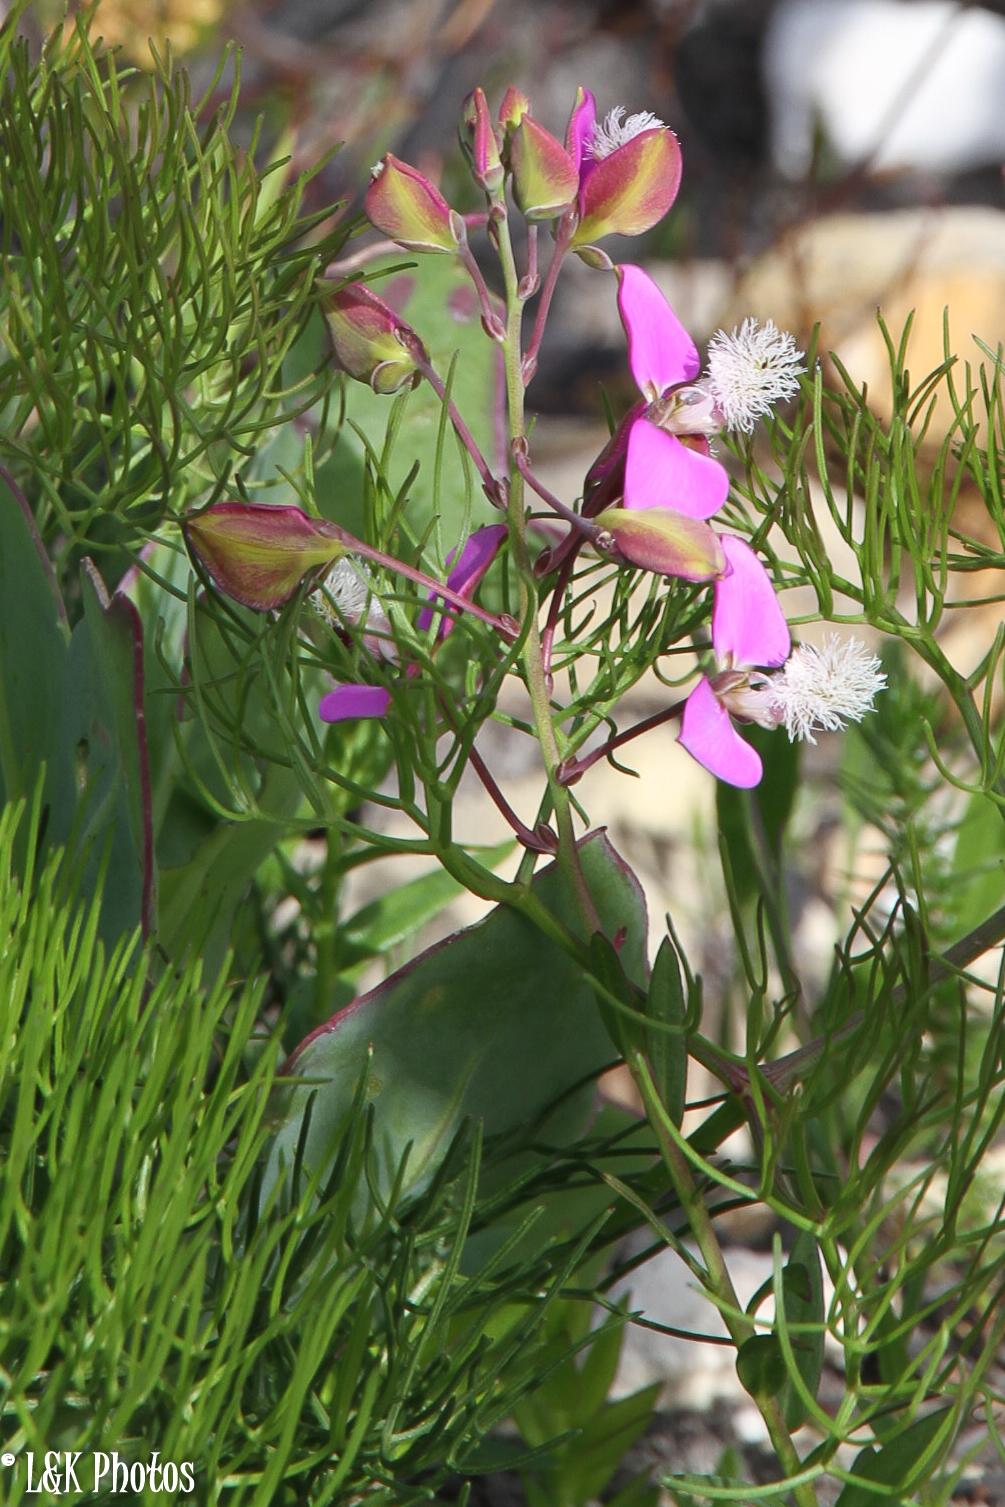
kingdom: Plantae
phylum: Tracheophyta
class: Magnoliopsida
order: Fabales
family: Polygalaceae
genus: Polygala
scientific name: Polygala bracteolata
